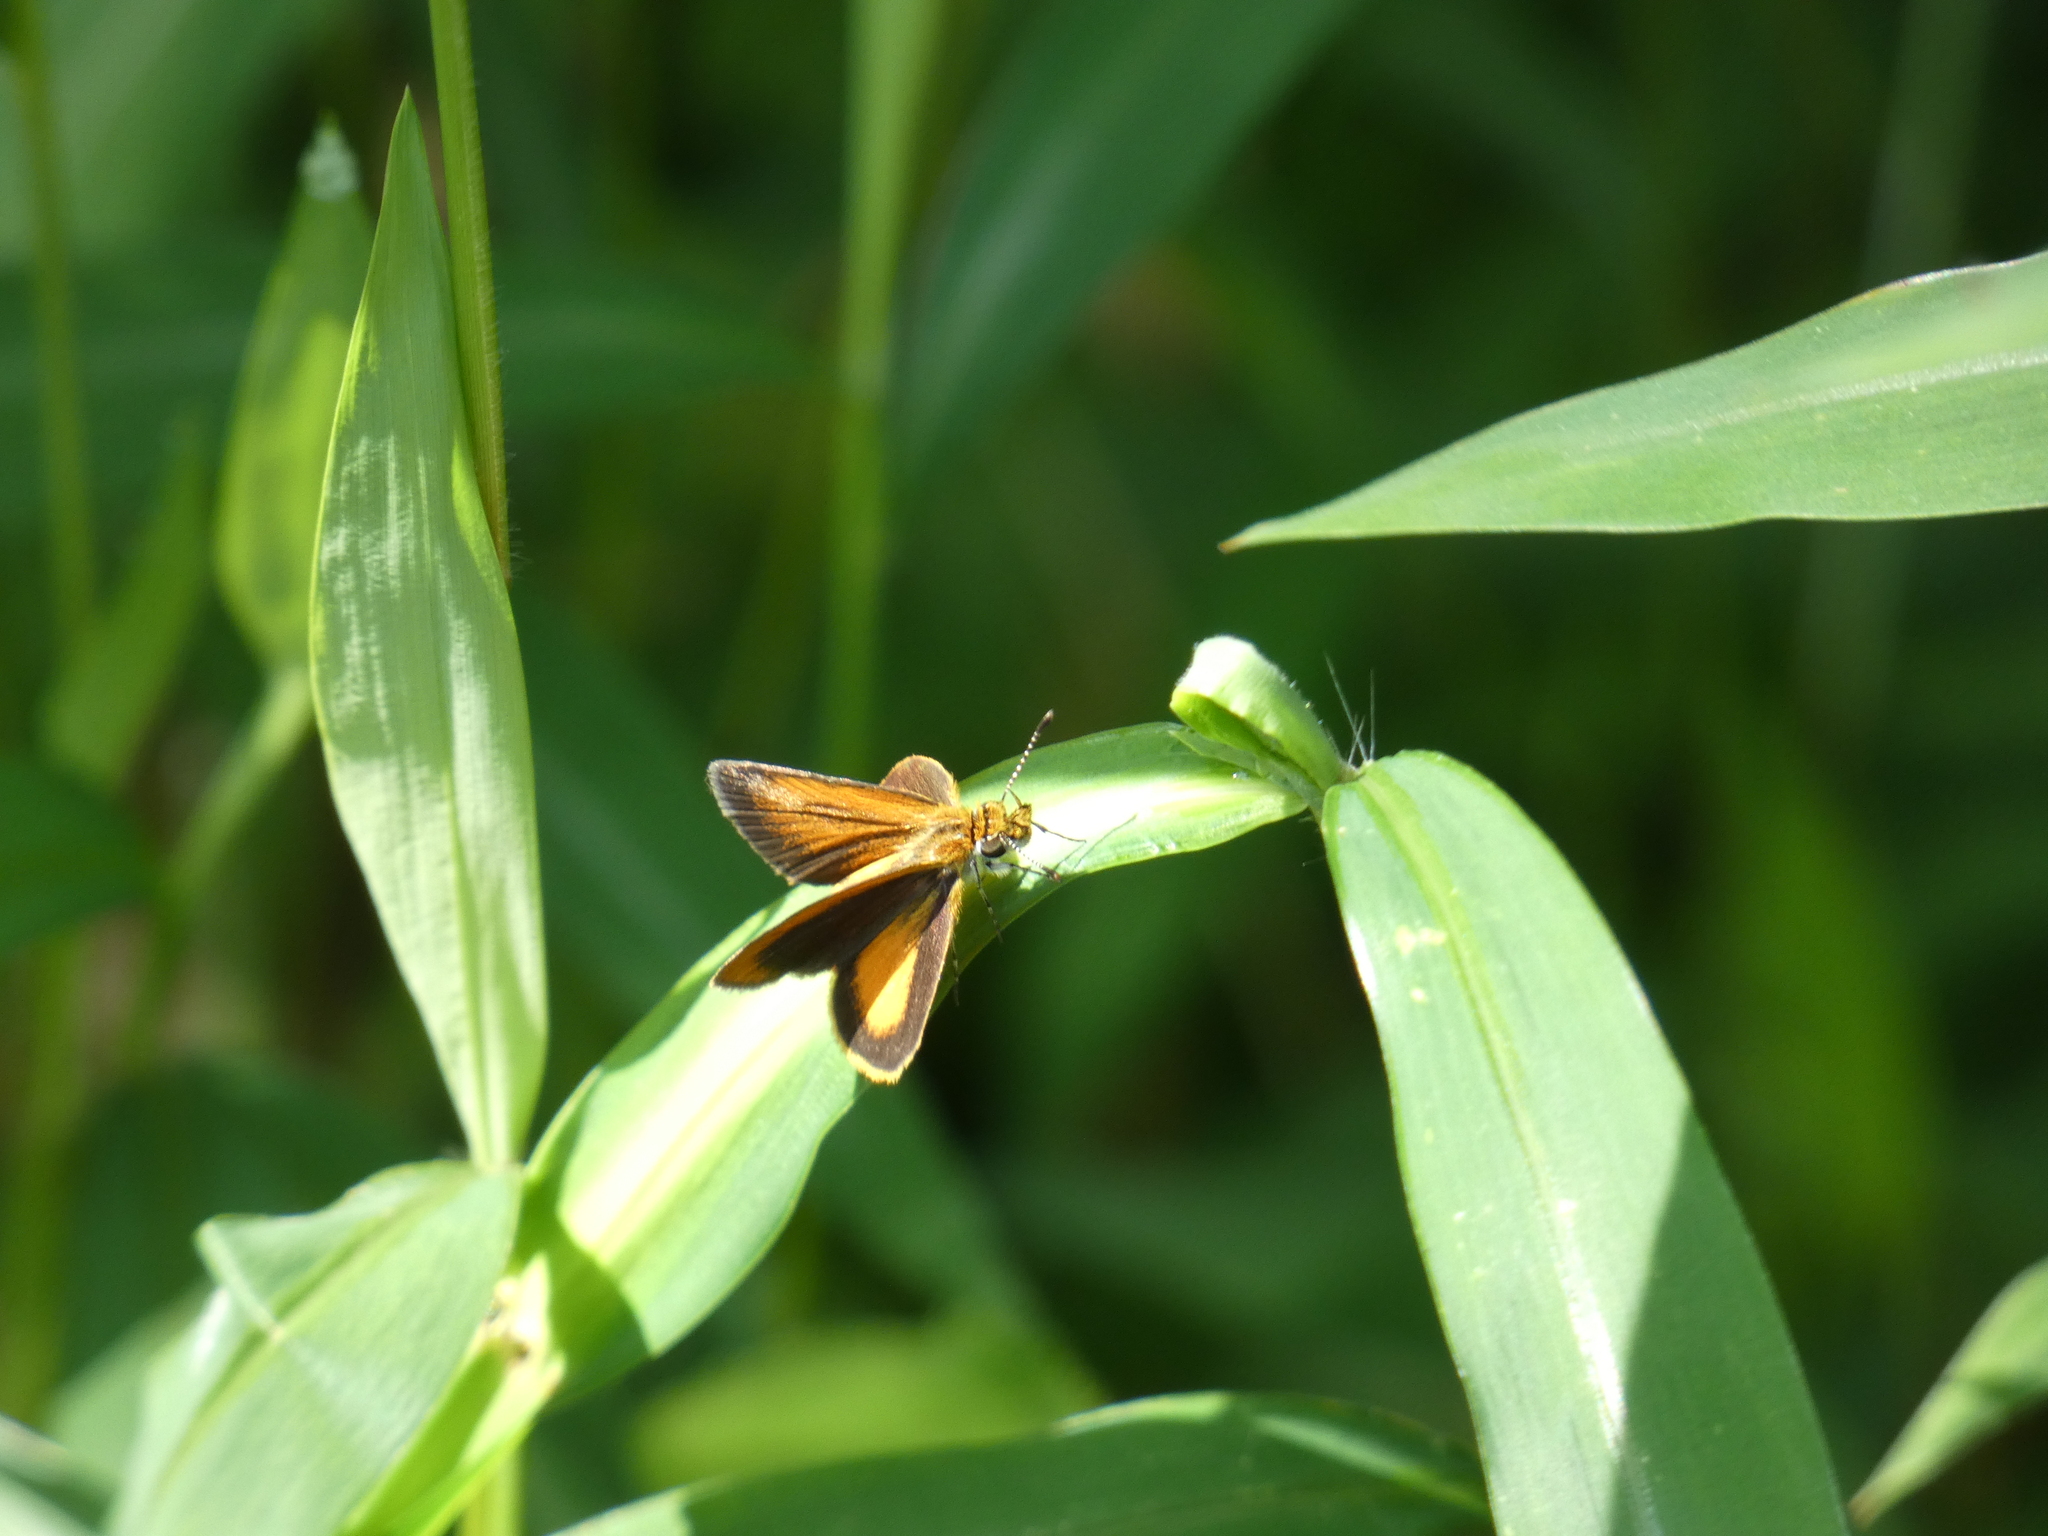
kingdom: Animalia
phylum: Arthropoda
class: Insecta
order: Lepidoptera
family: Hesperiidae
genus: Ancyloxypha
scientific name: Ancyloxypha numitor
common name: Least skipper
